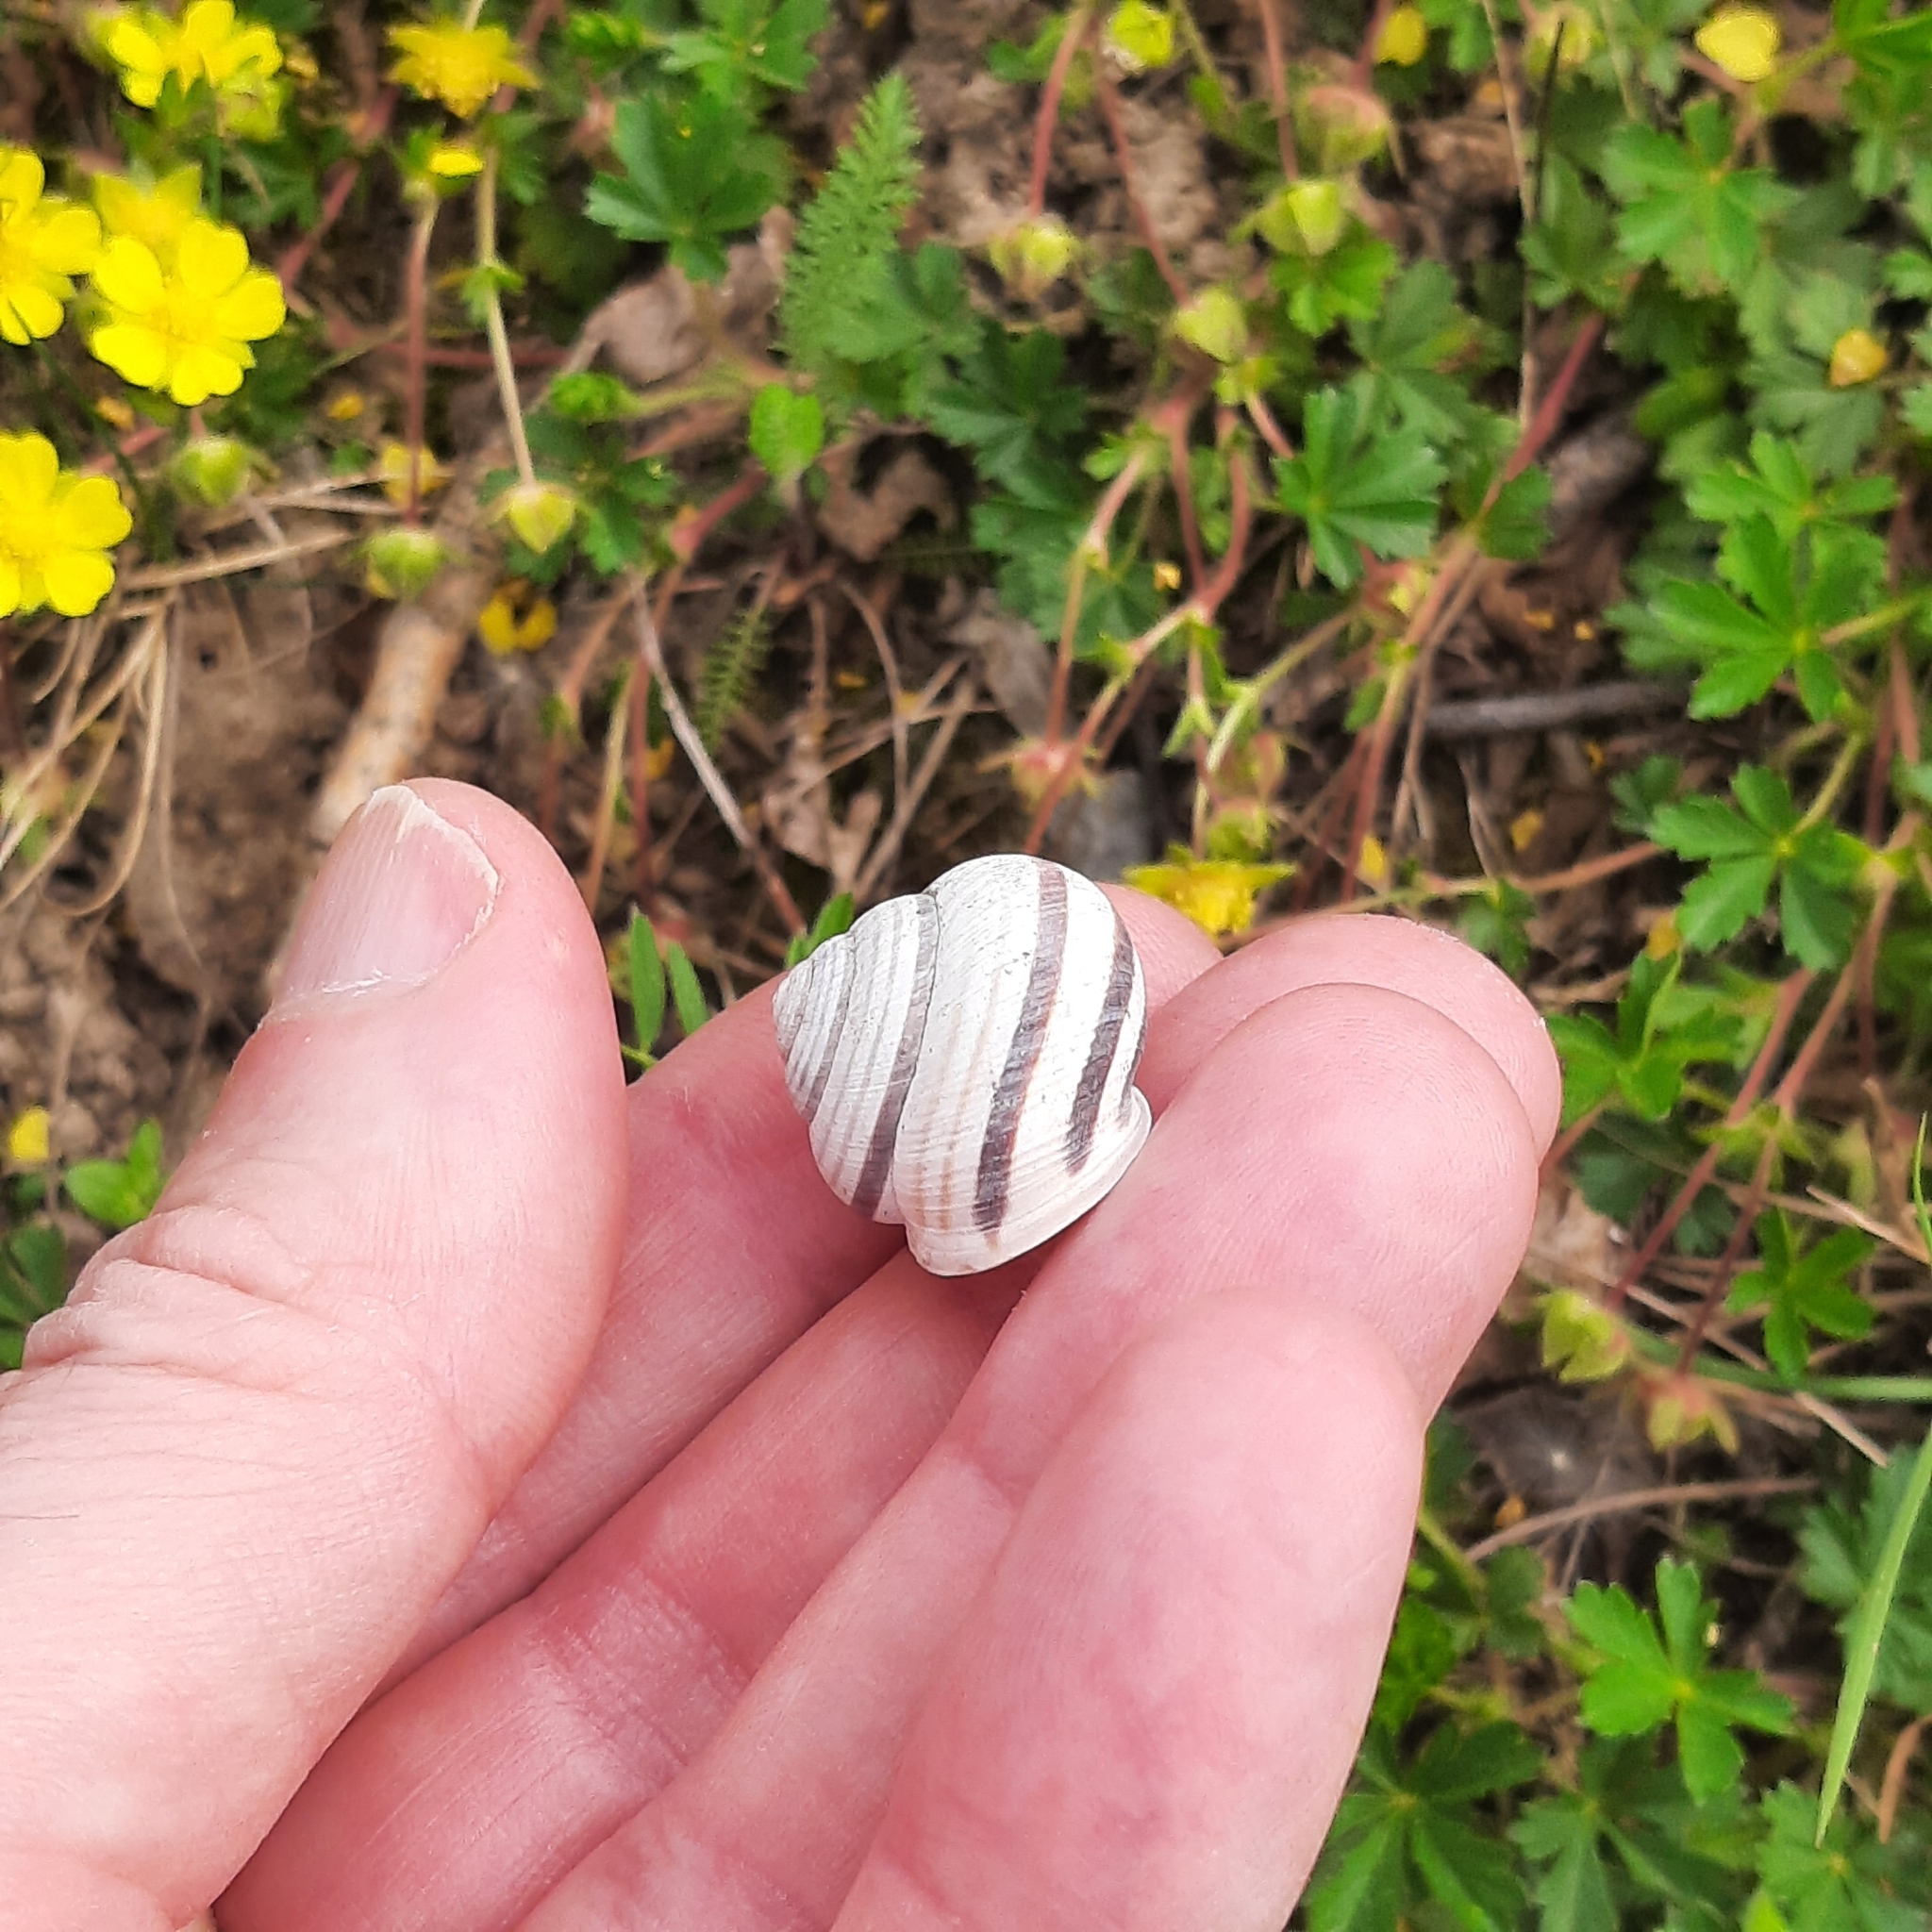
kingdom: Animalia
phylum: Mollusca
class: Gastropoda
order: Stylommatophora
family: Helicidae
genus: Caucasotachea
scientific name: Caucasotachea vindobonensis
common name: European helicid land snail
